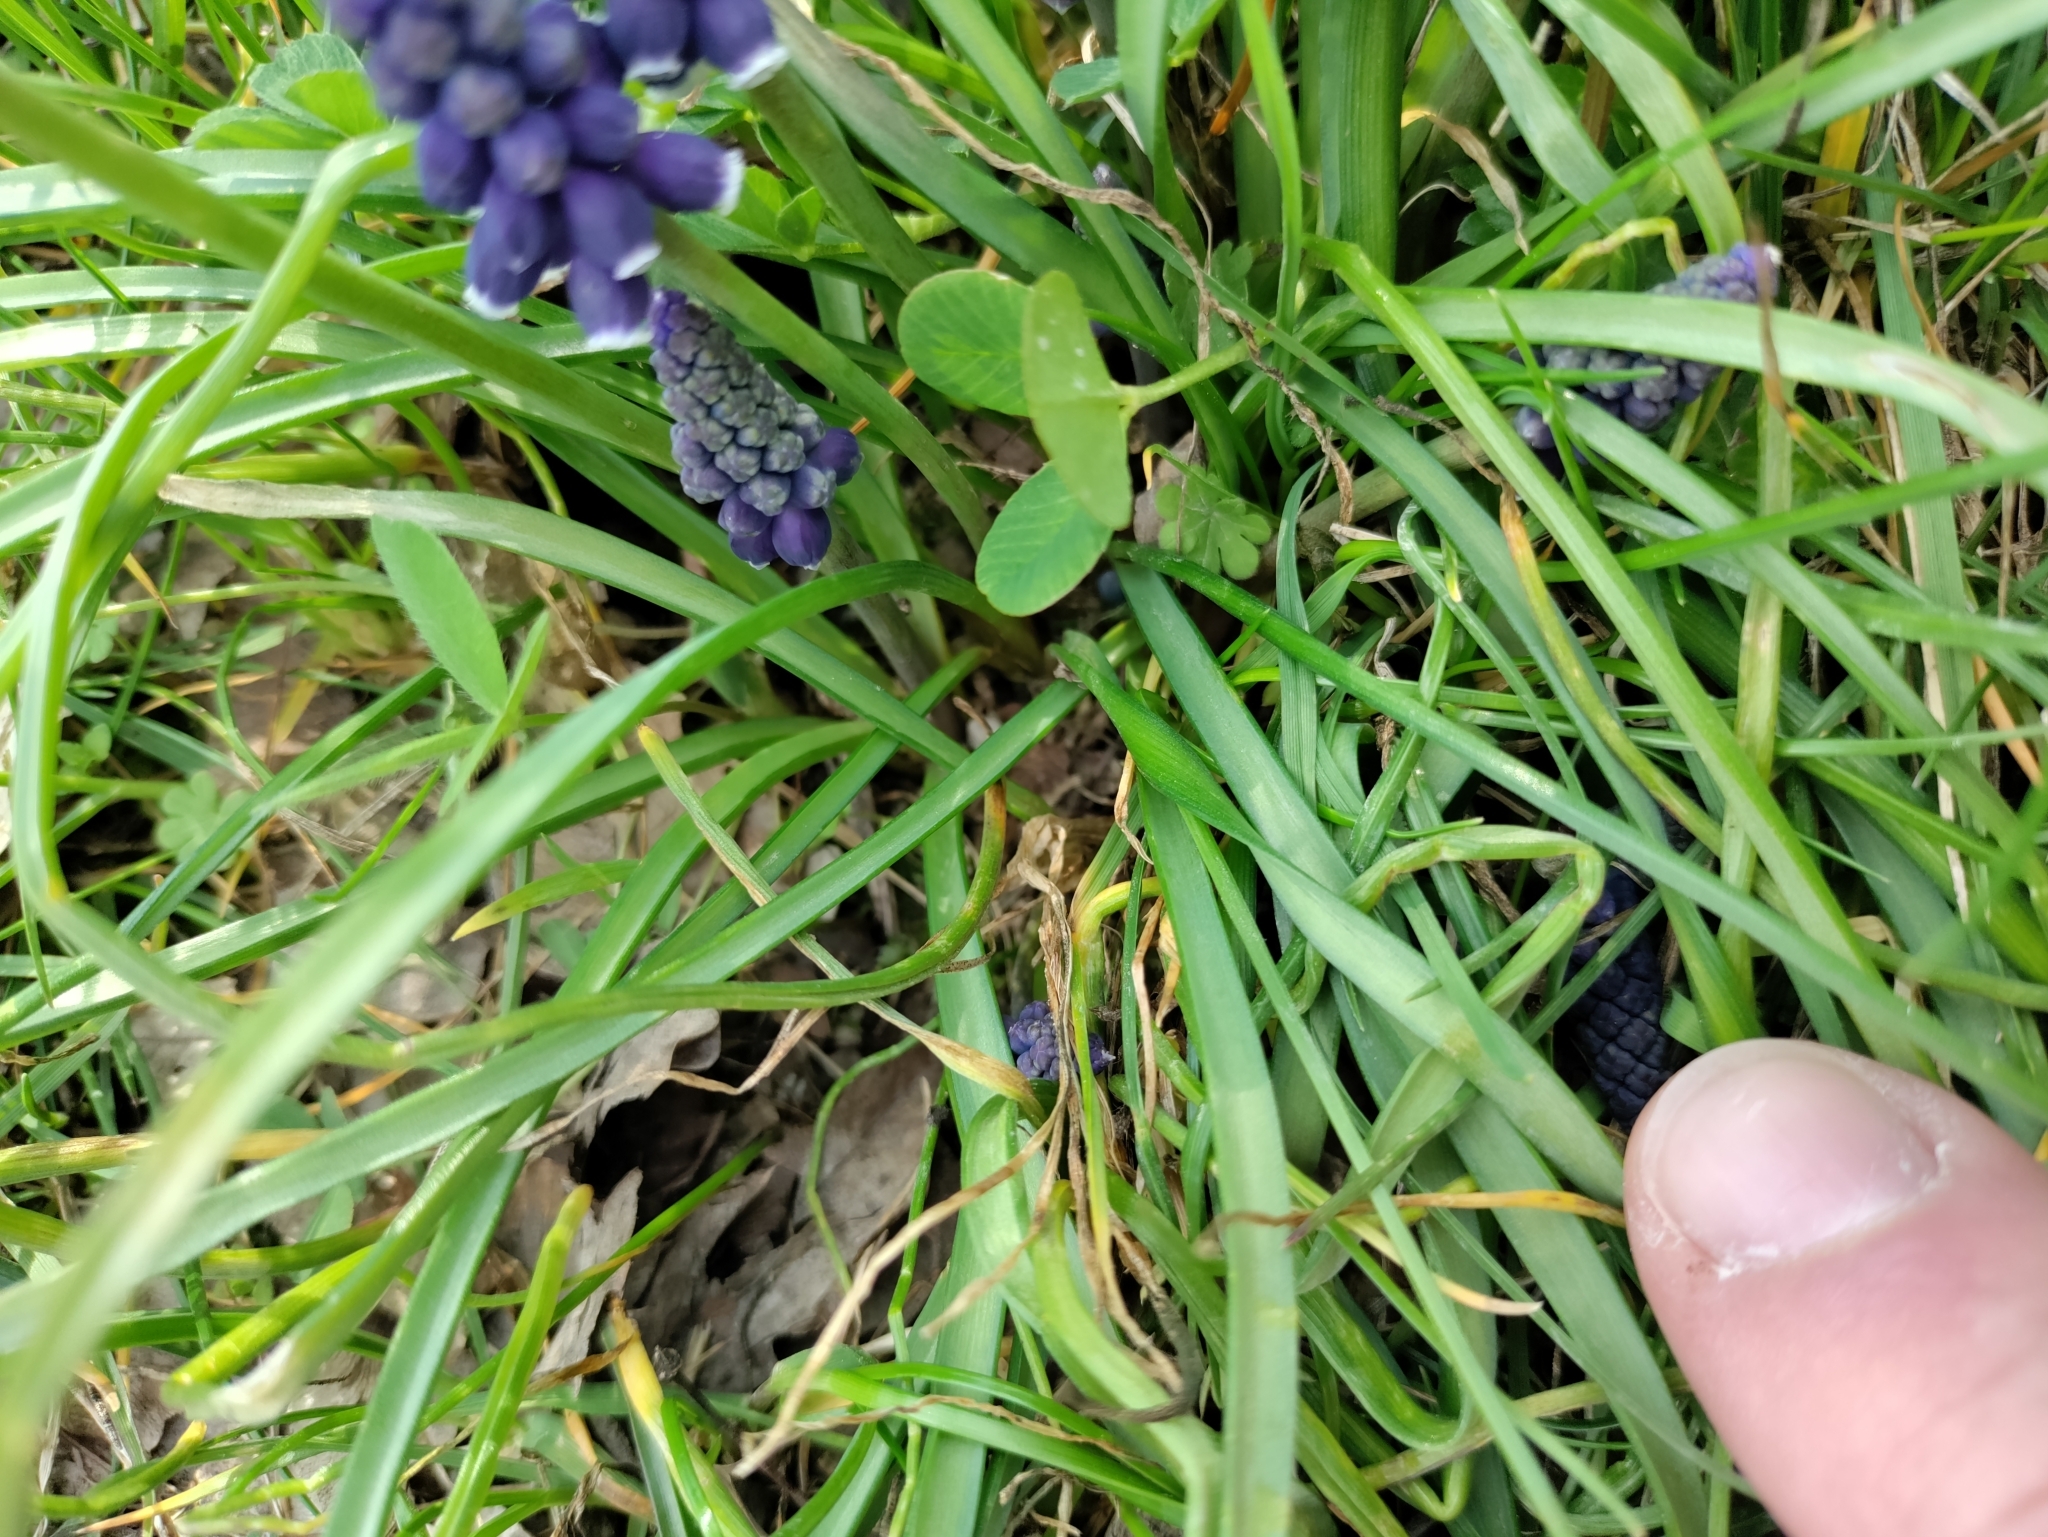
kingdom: Plantae
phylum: Tracheophyta
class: Liliopsida
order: Asparagales
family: Asparagaceae
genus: Muscari
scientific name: Muscari neglectum
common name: Grape-hyacinth
